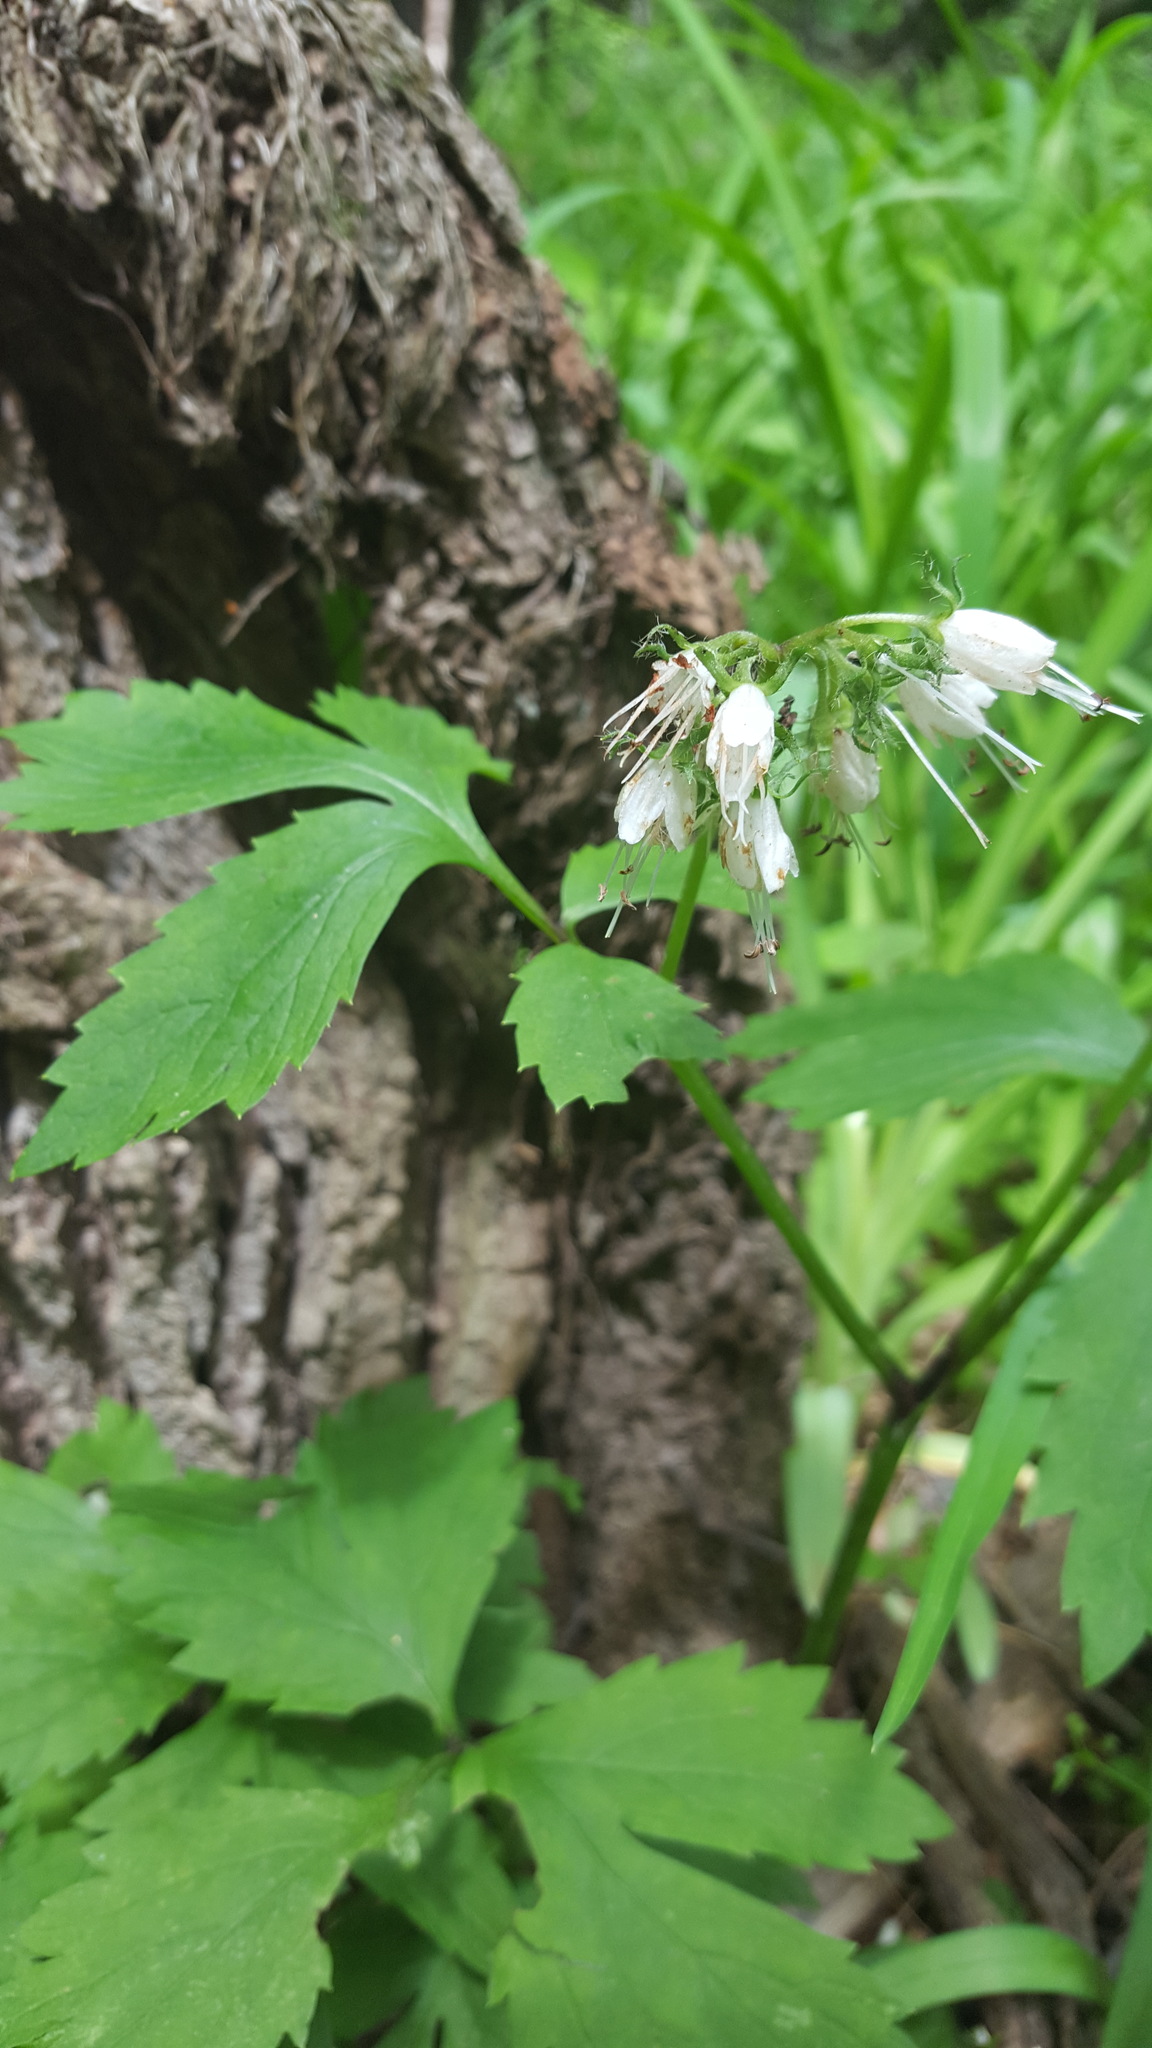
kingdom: Plantae
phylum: Tracheophyta
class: Magnoliopsida
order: Boraginales
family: Hydrophyllaceae
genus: Hydrophyllum
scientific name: Hydrophyllum virginianum
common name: Virginia waterleaf
